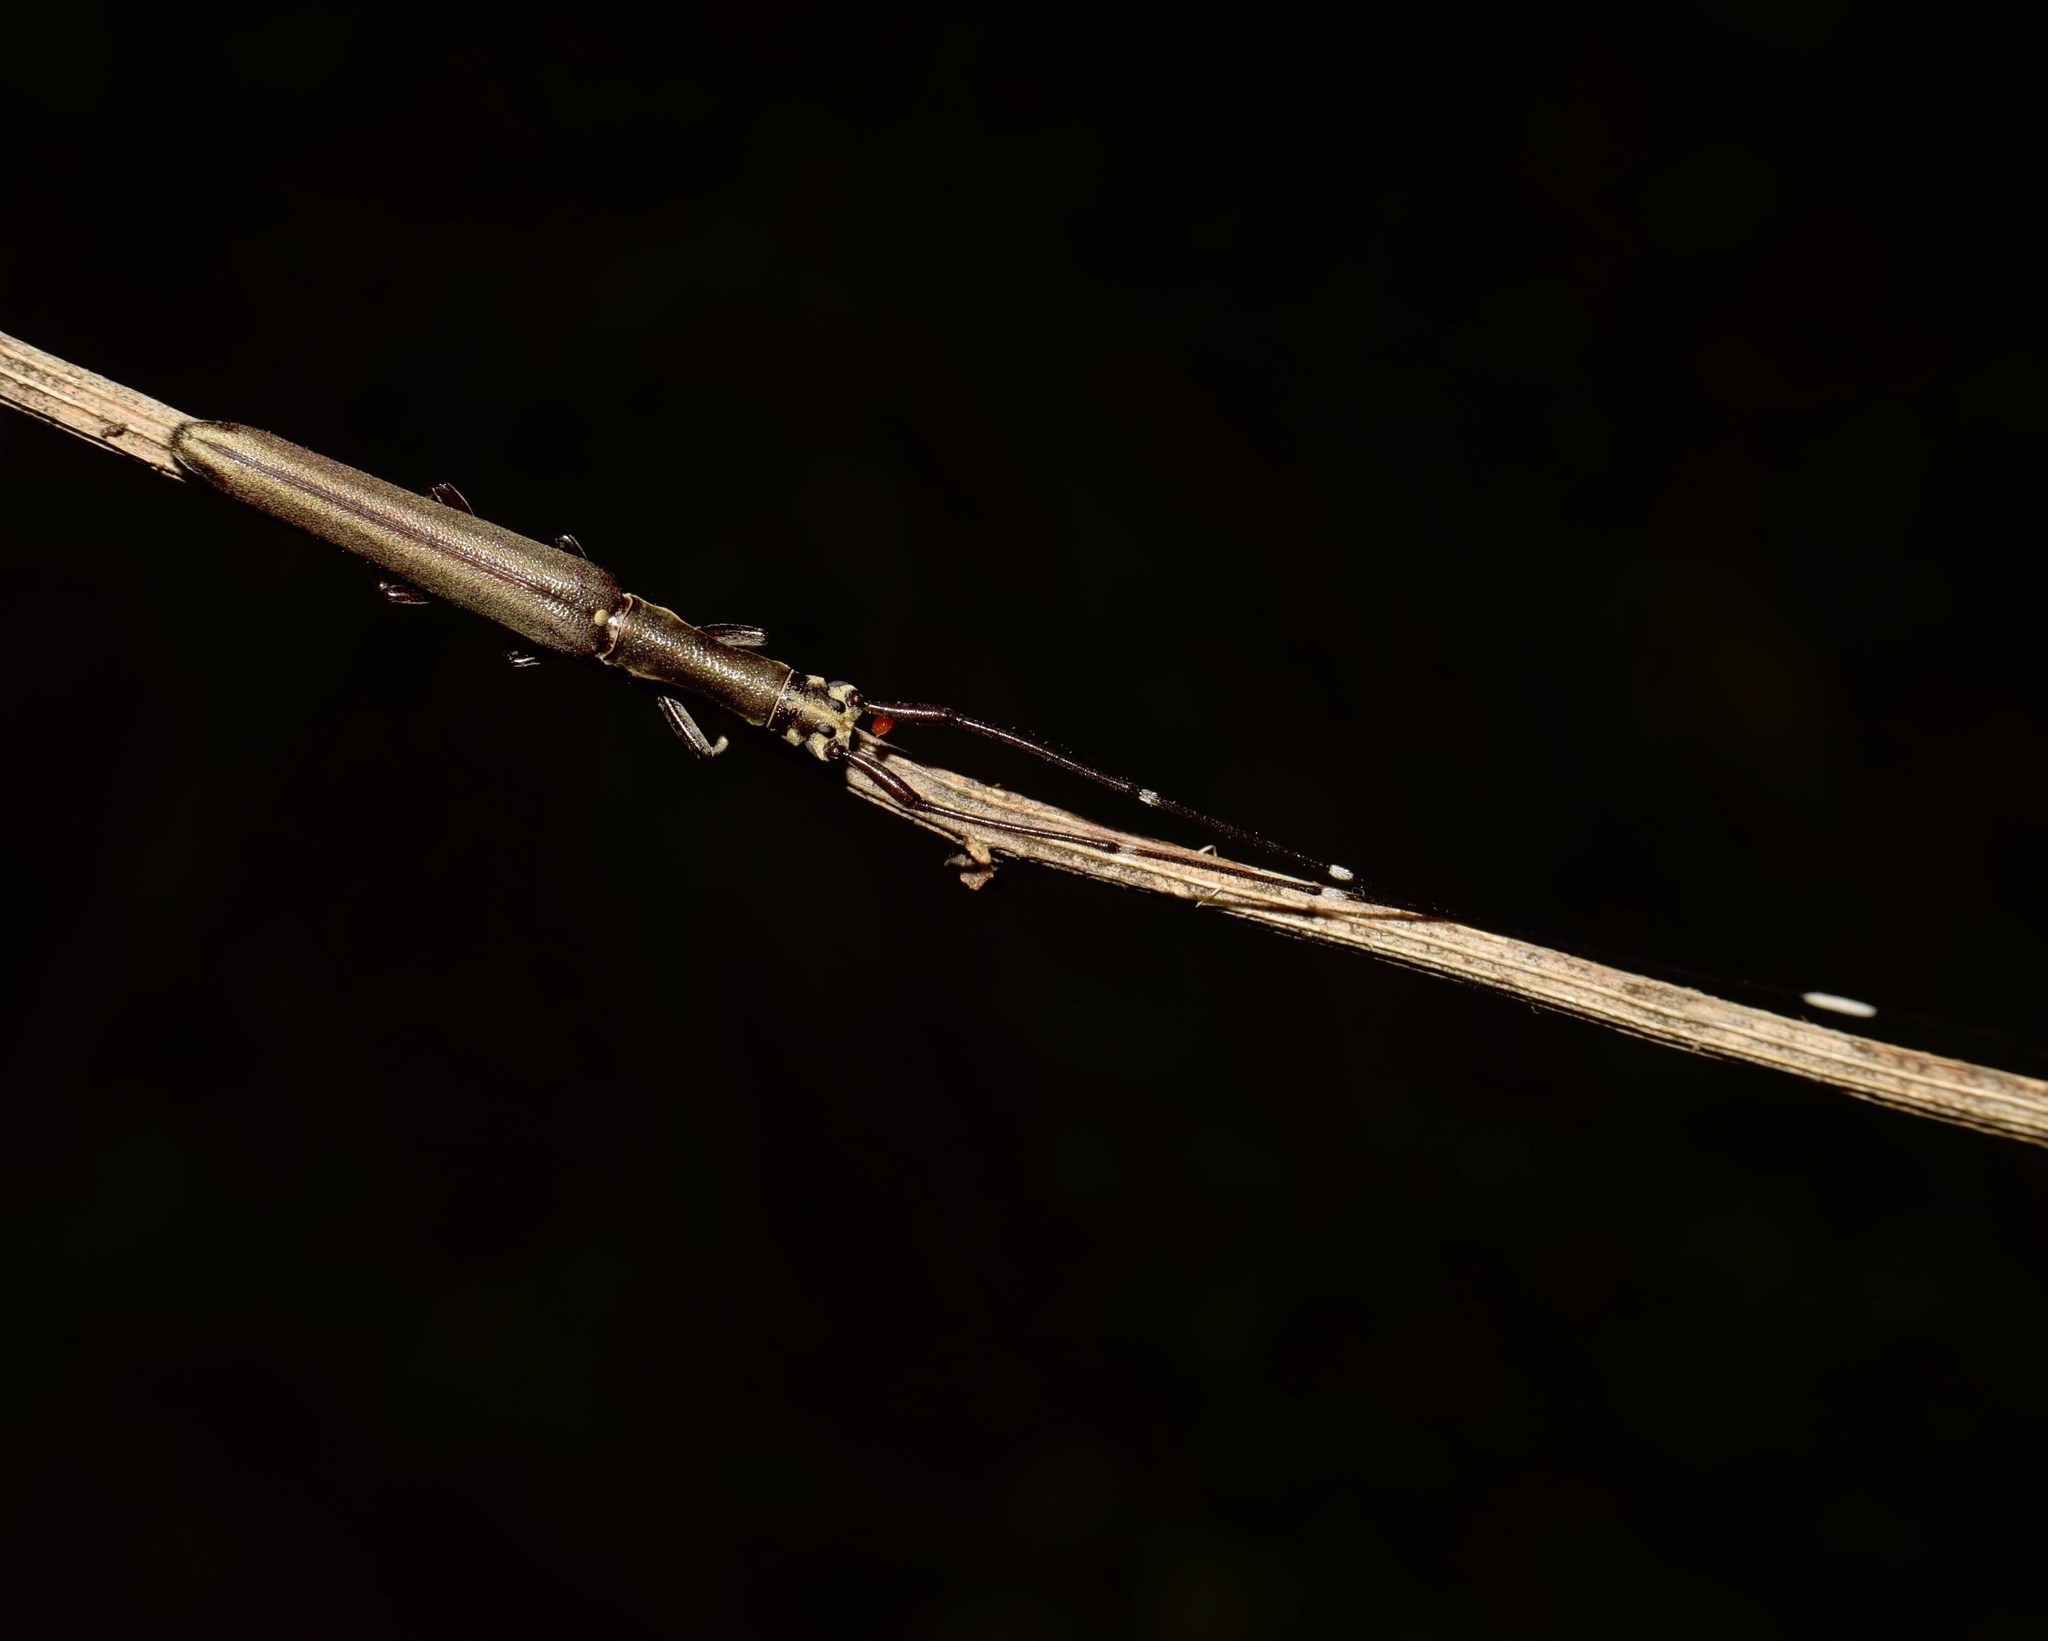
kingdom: Animalia
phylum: Arthropoda
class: Insecta
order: Coleoptera
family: Cerambycidae
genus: Anauxesis
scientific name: Anauxesis cincticornis
